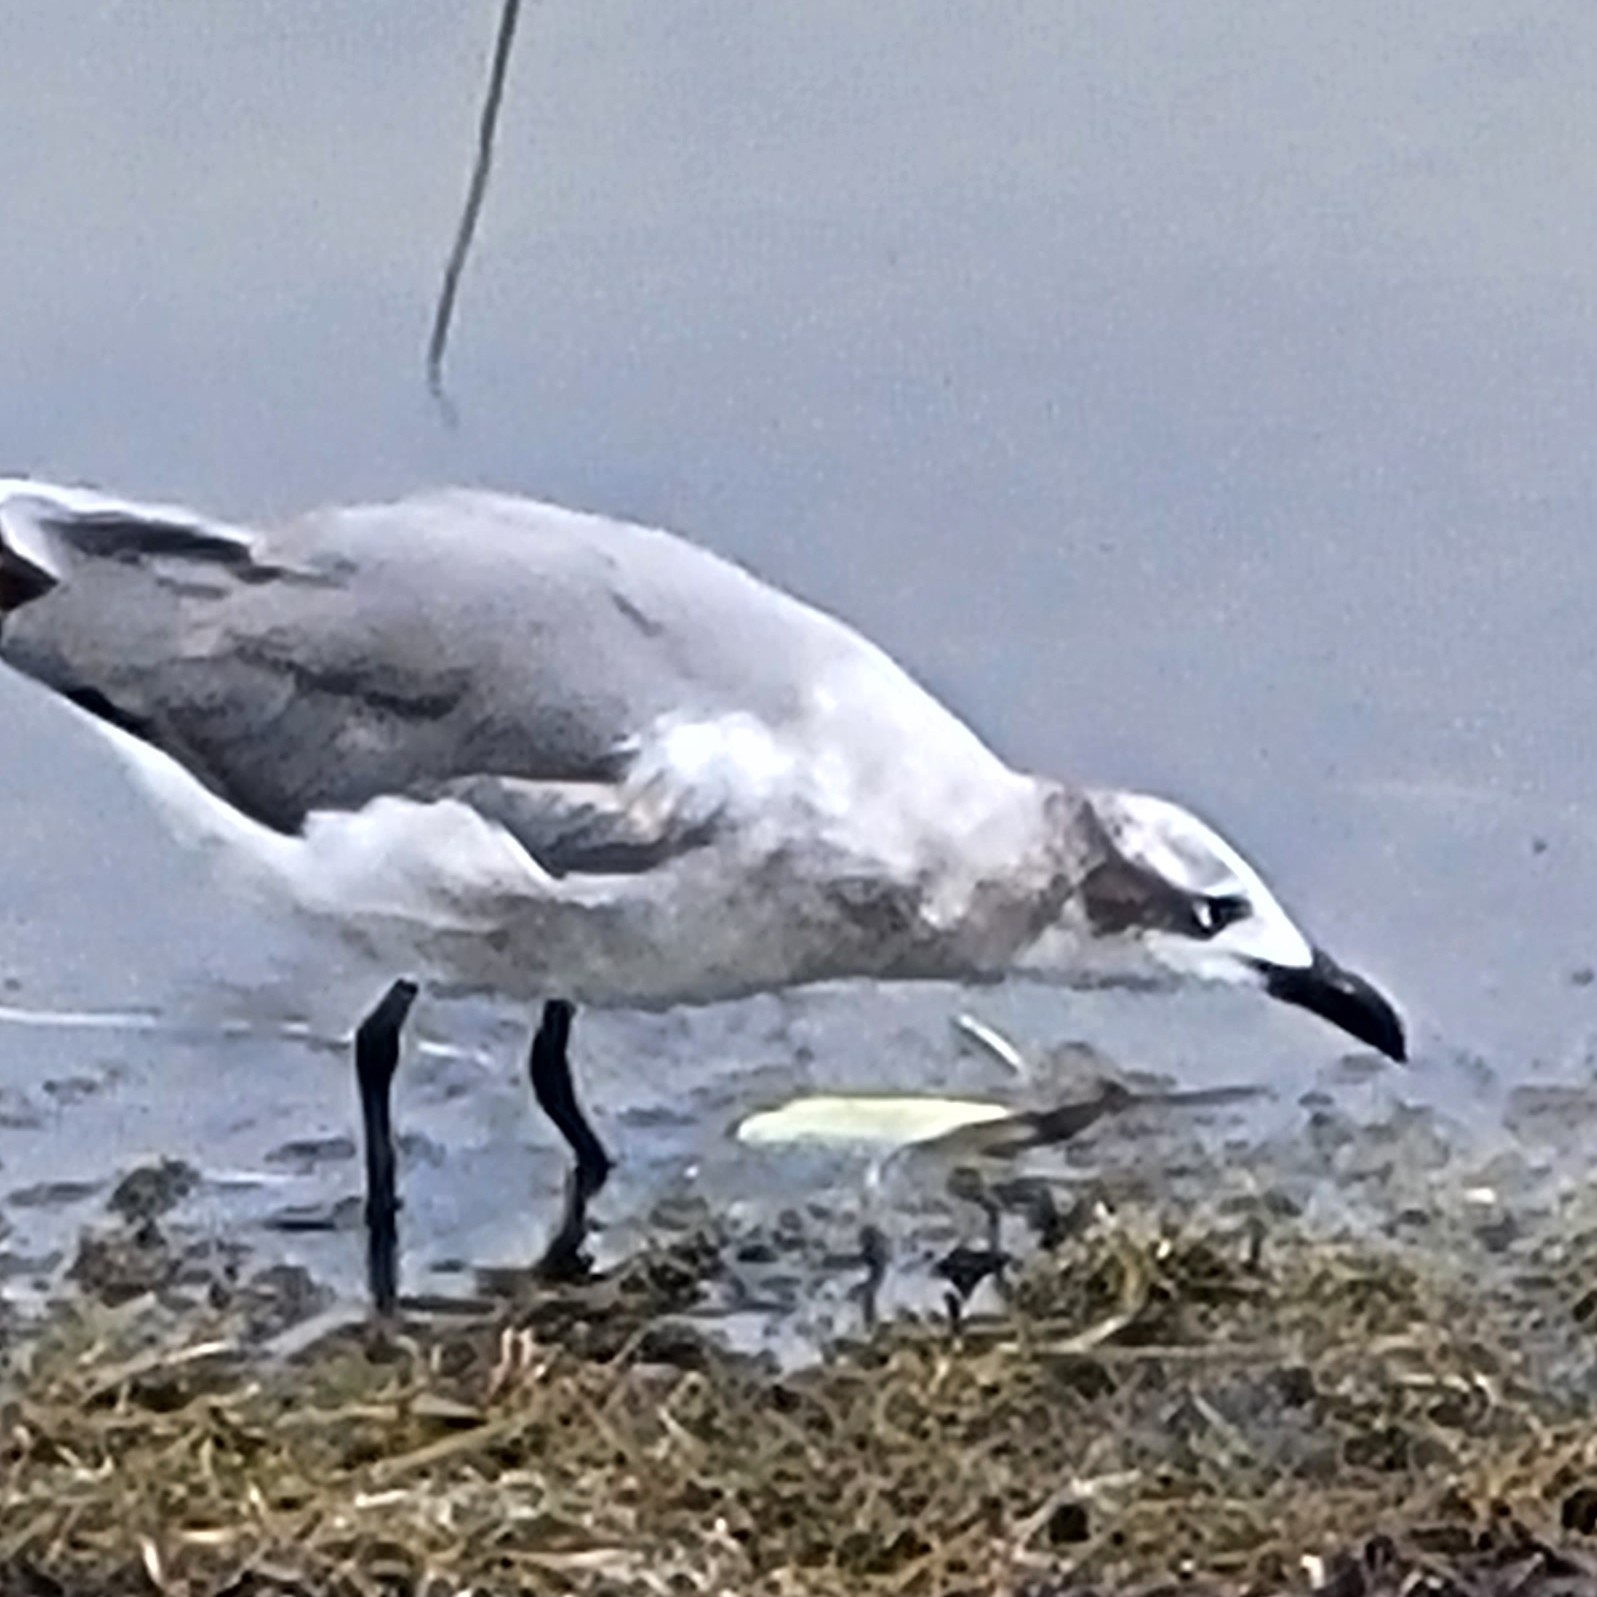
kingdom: Animalia
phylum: Chordata
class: Aves
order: Charadriiformes
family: Laridae
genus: Leucophaeus
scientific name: Leucophaeus atricilla
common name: Laughing gull
